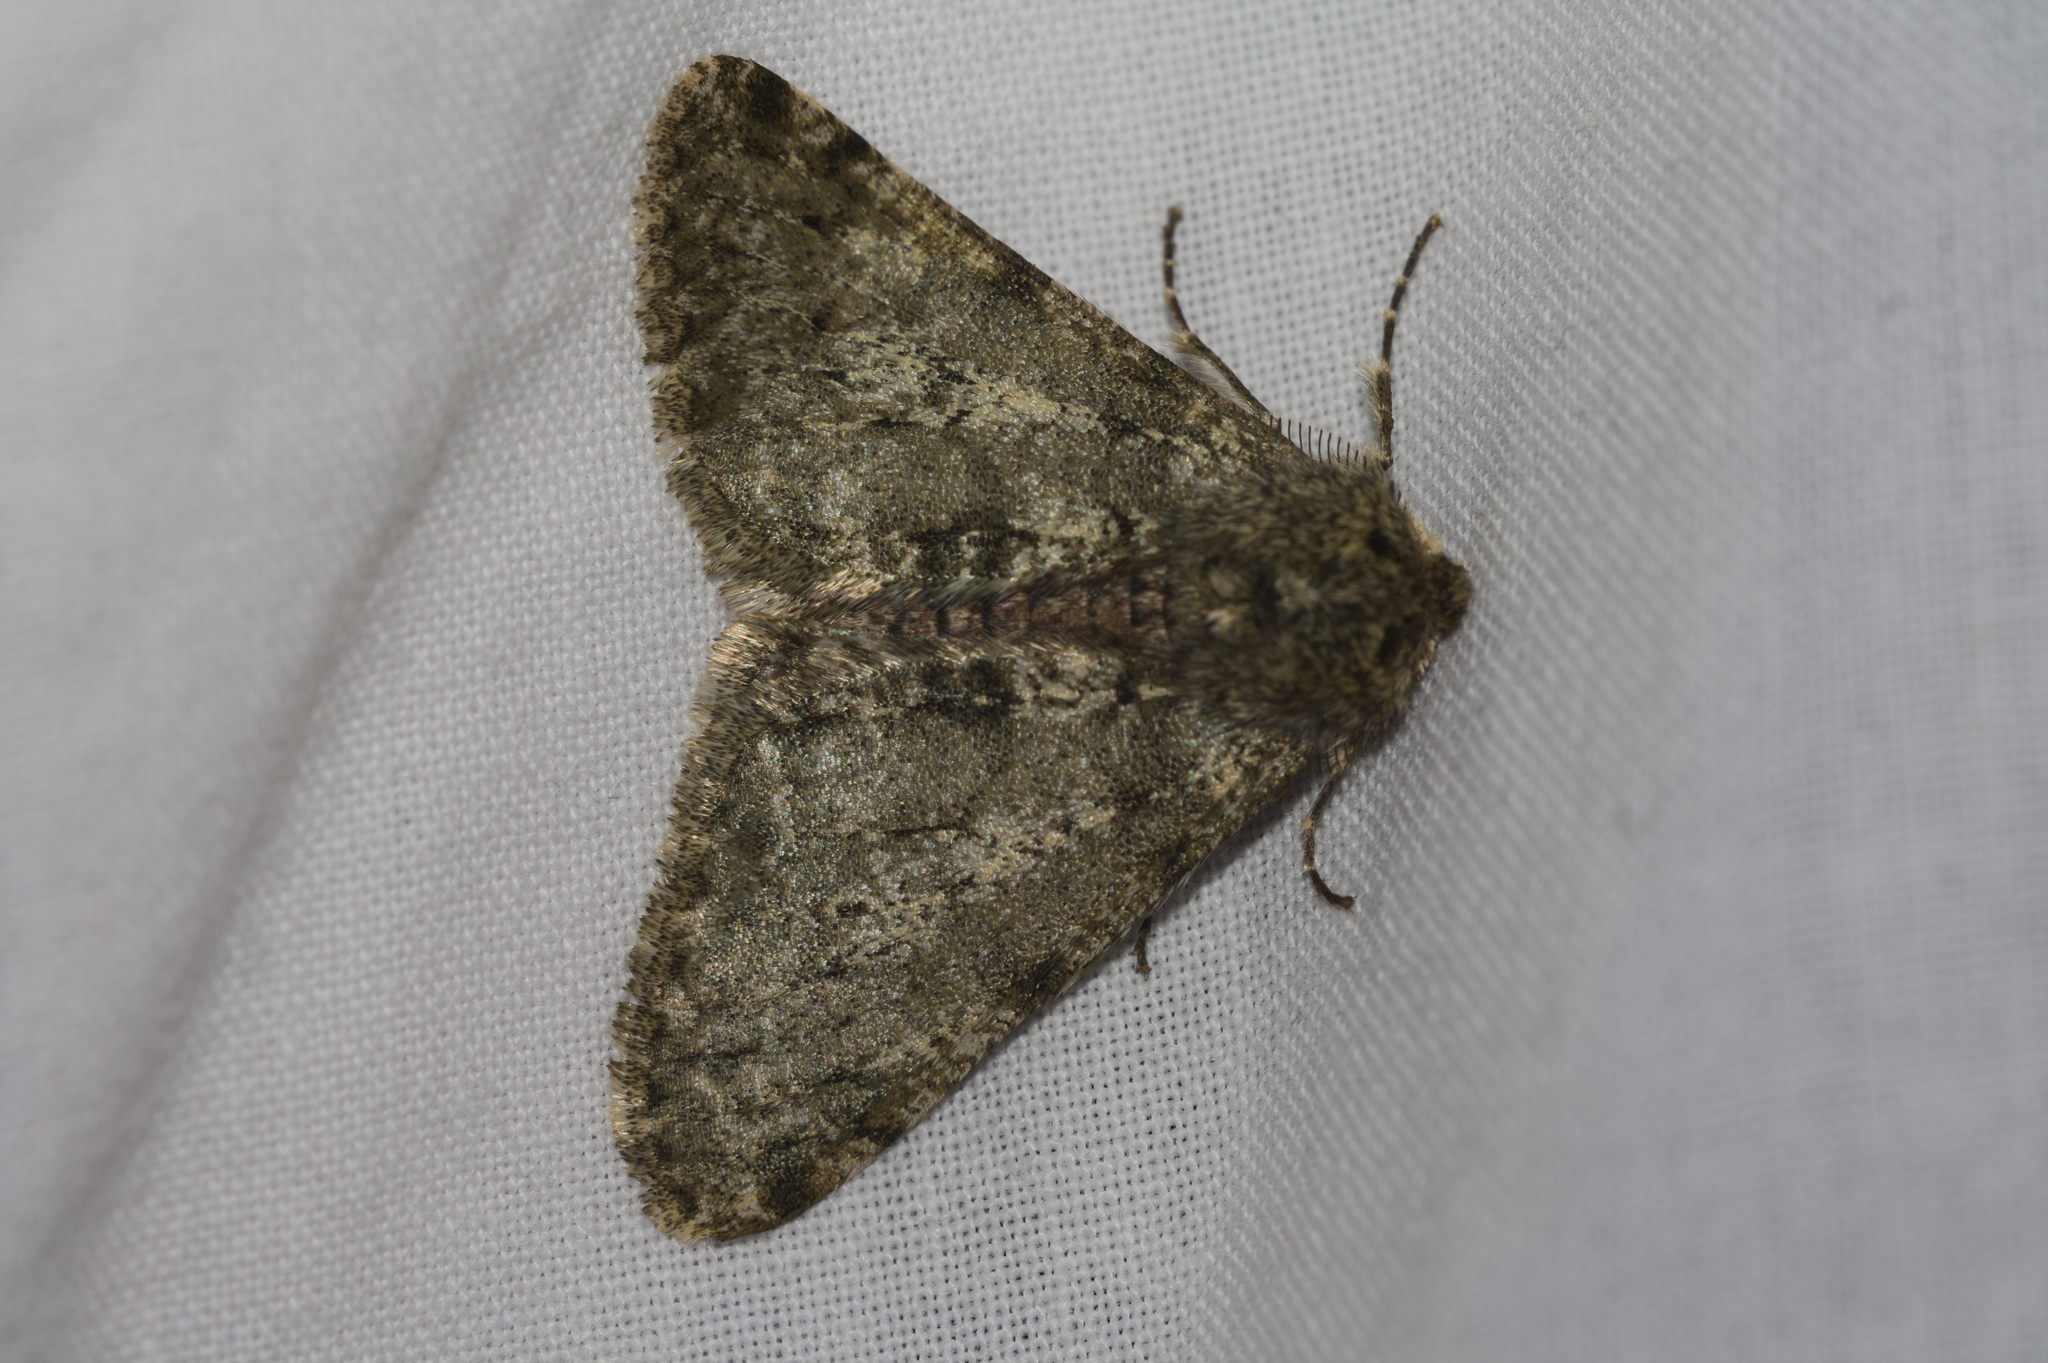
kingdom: Animalia
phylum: Arthropoda
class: Insecta
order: Lepidoptera
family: Geometridae
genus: Phigalia
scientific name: Phigalia pilosaria
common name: Pale brindled beauty
